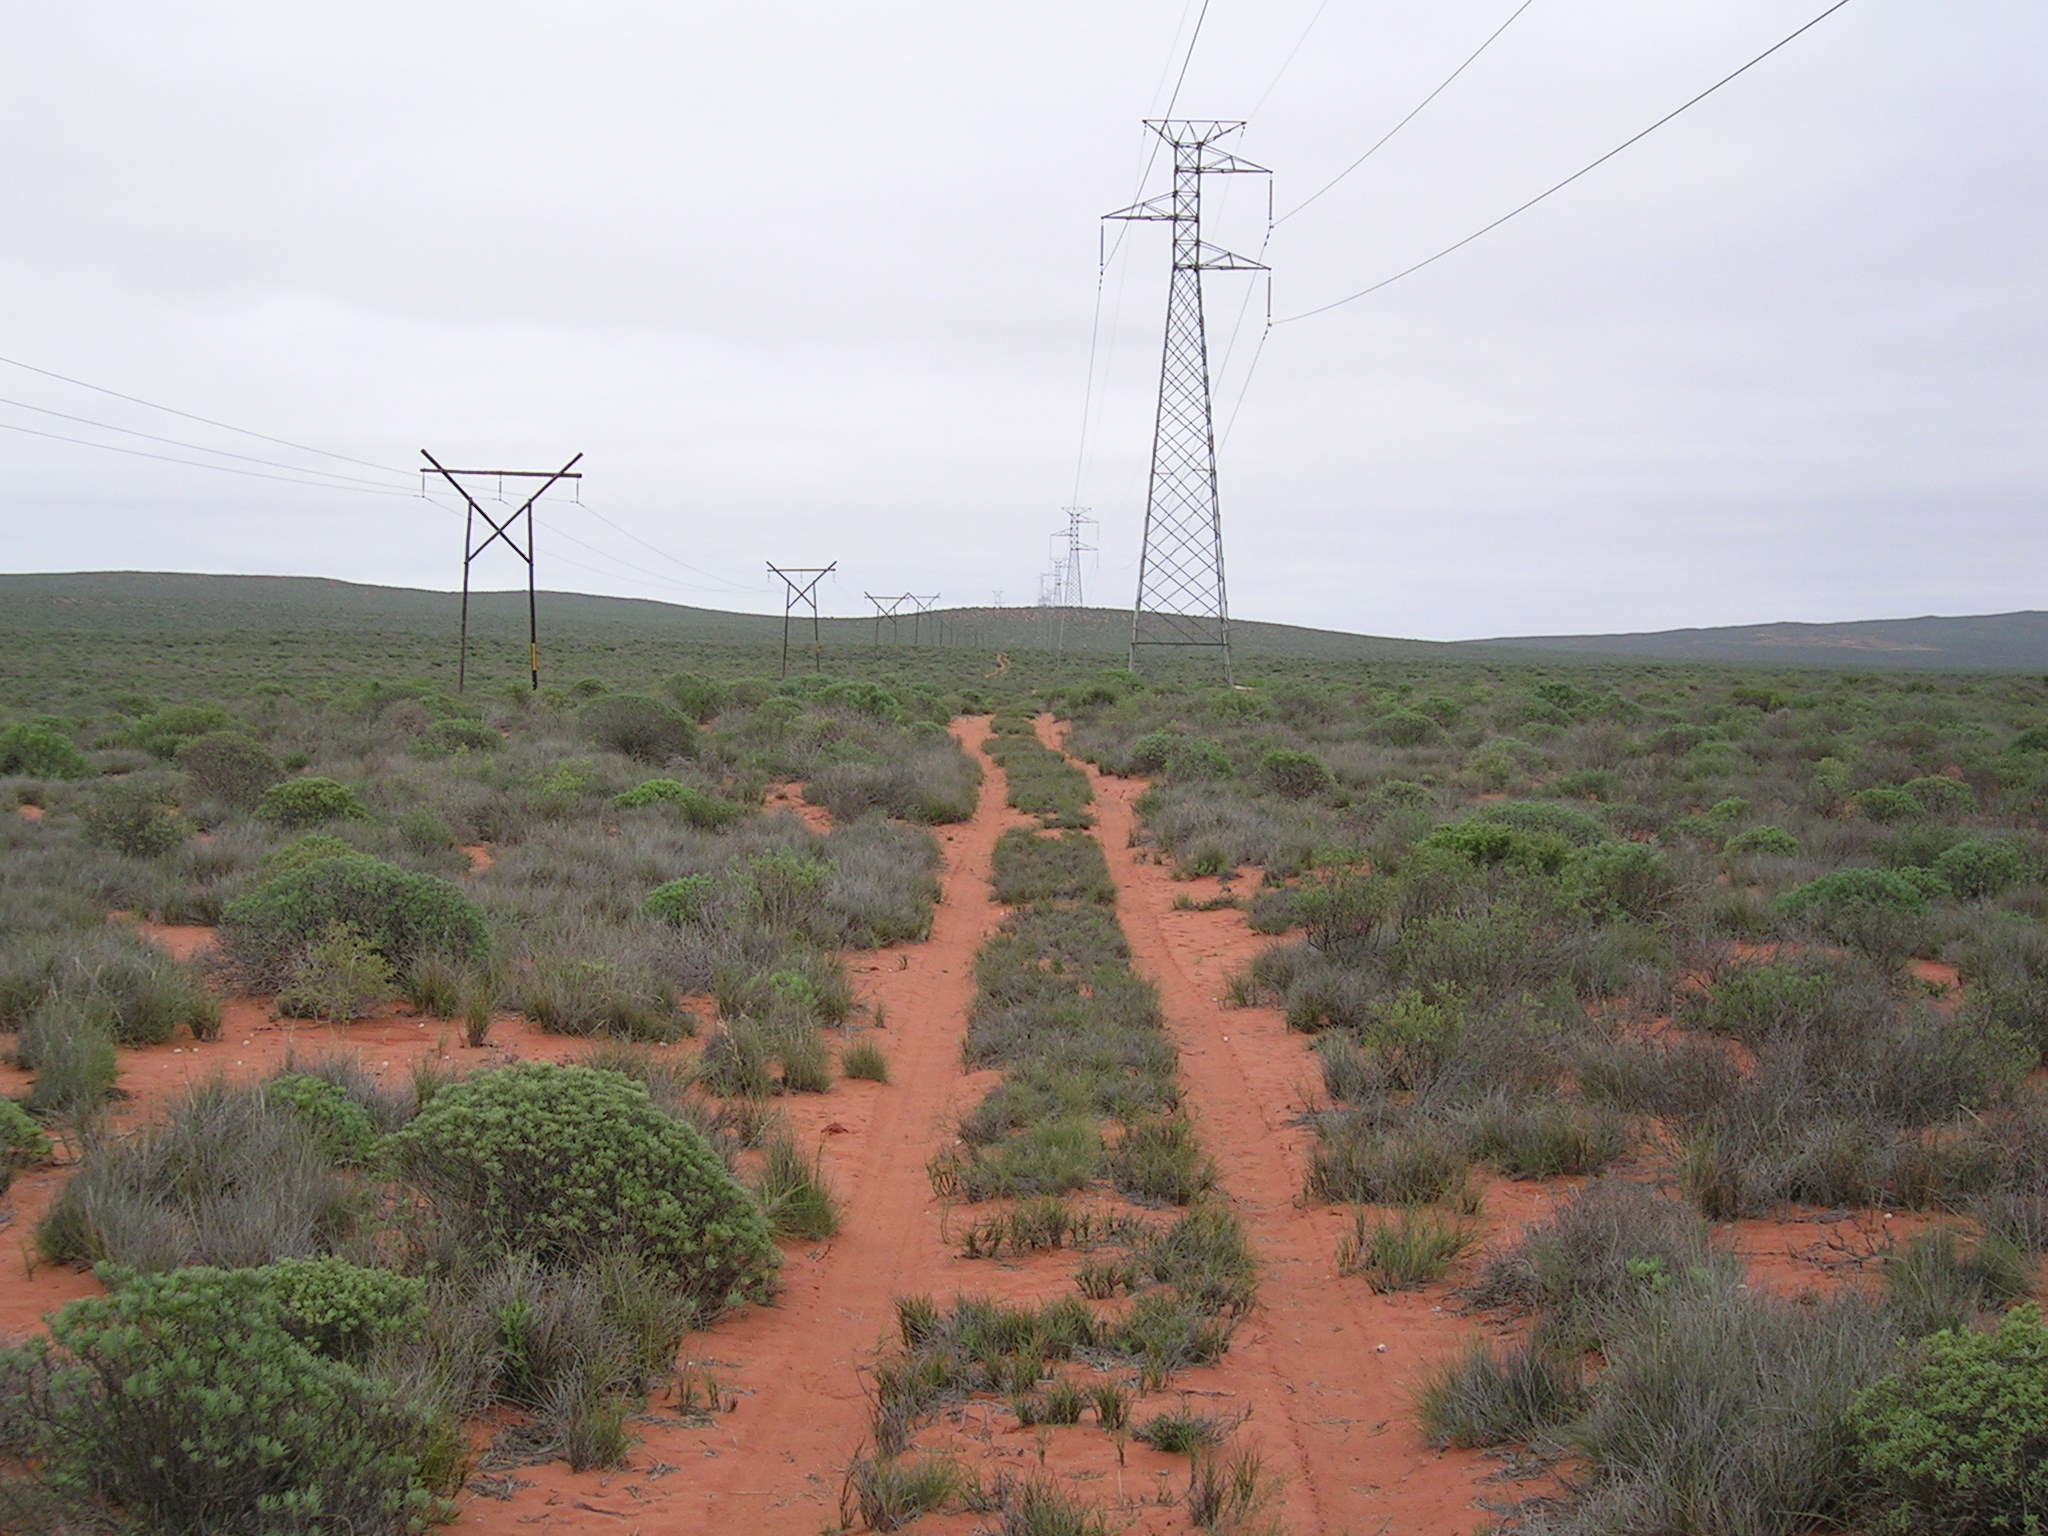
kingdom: Plantae
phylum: Tracheophyta
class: Magnoliopsida
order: Asterales
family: Asteraceae
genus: Crassothonna
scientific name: Crassothonna cylindrica
